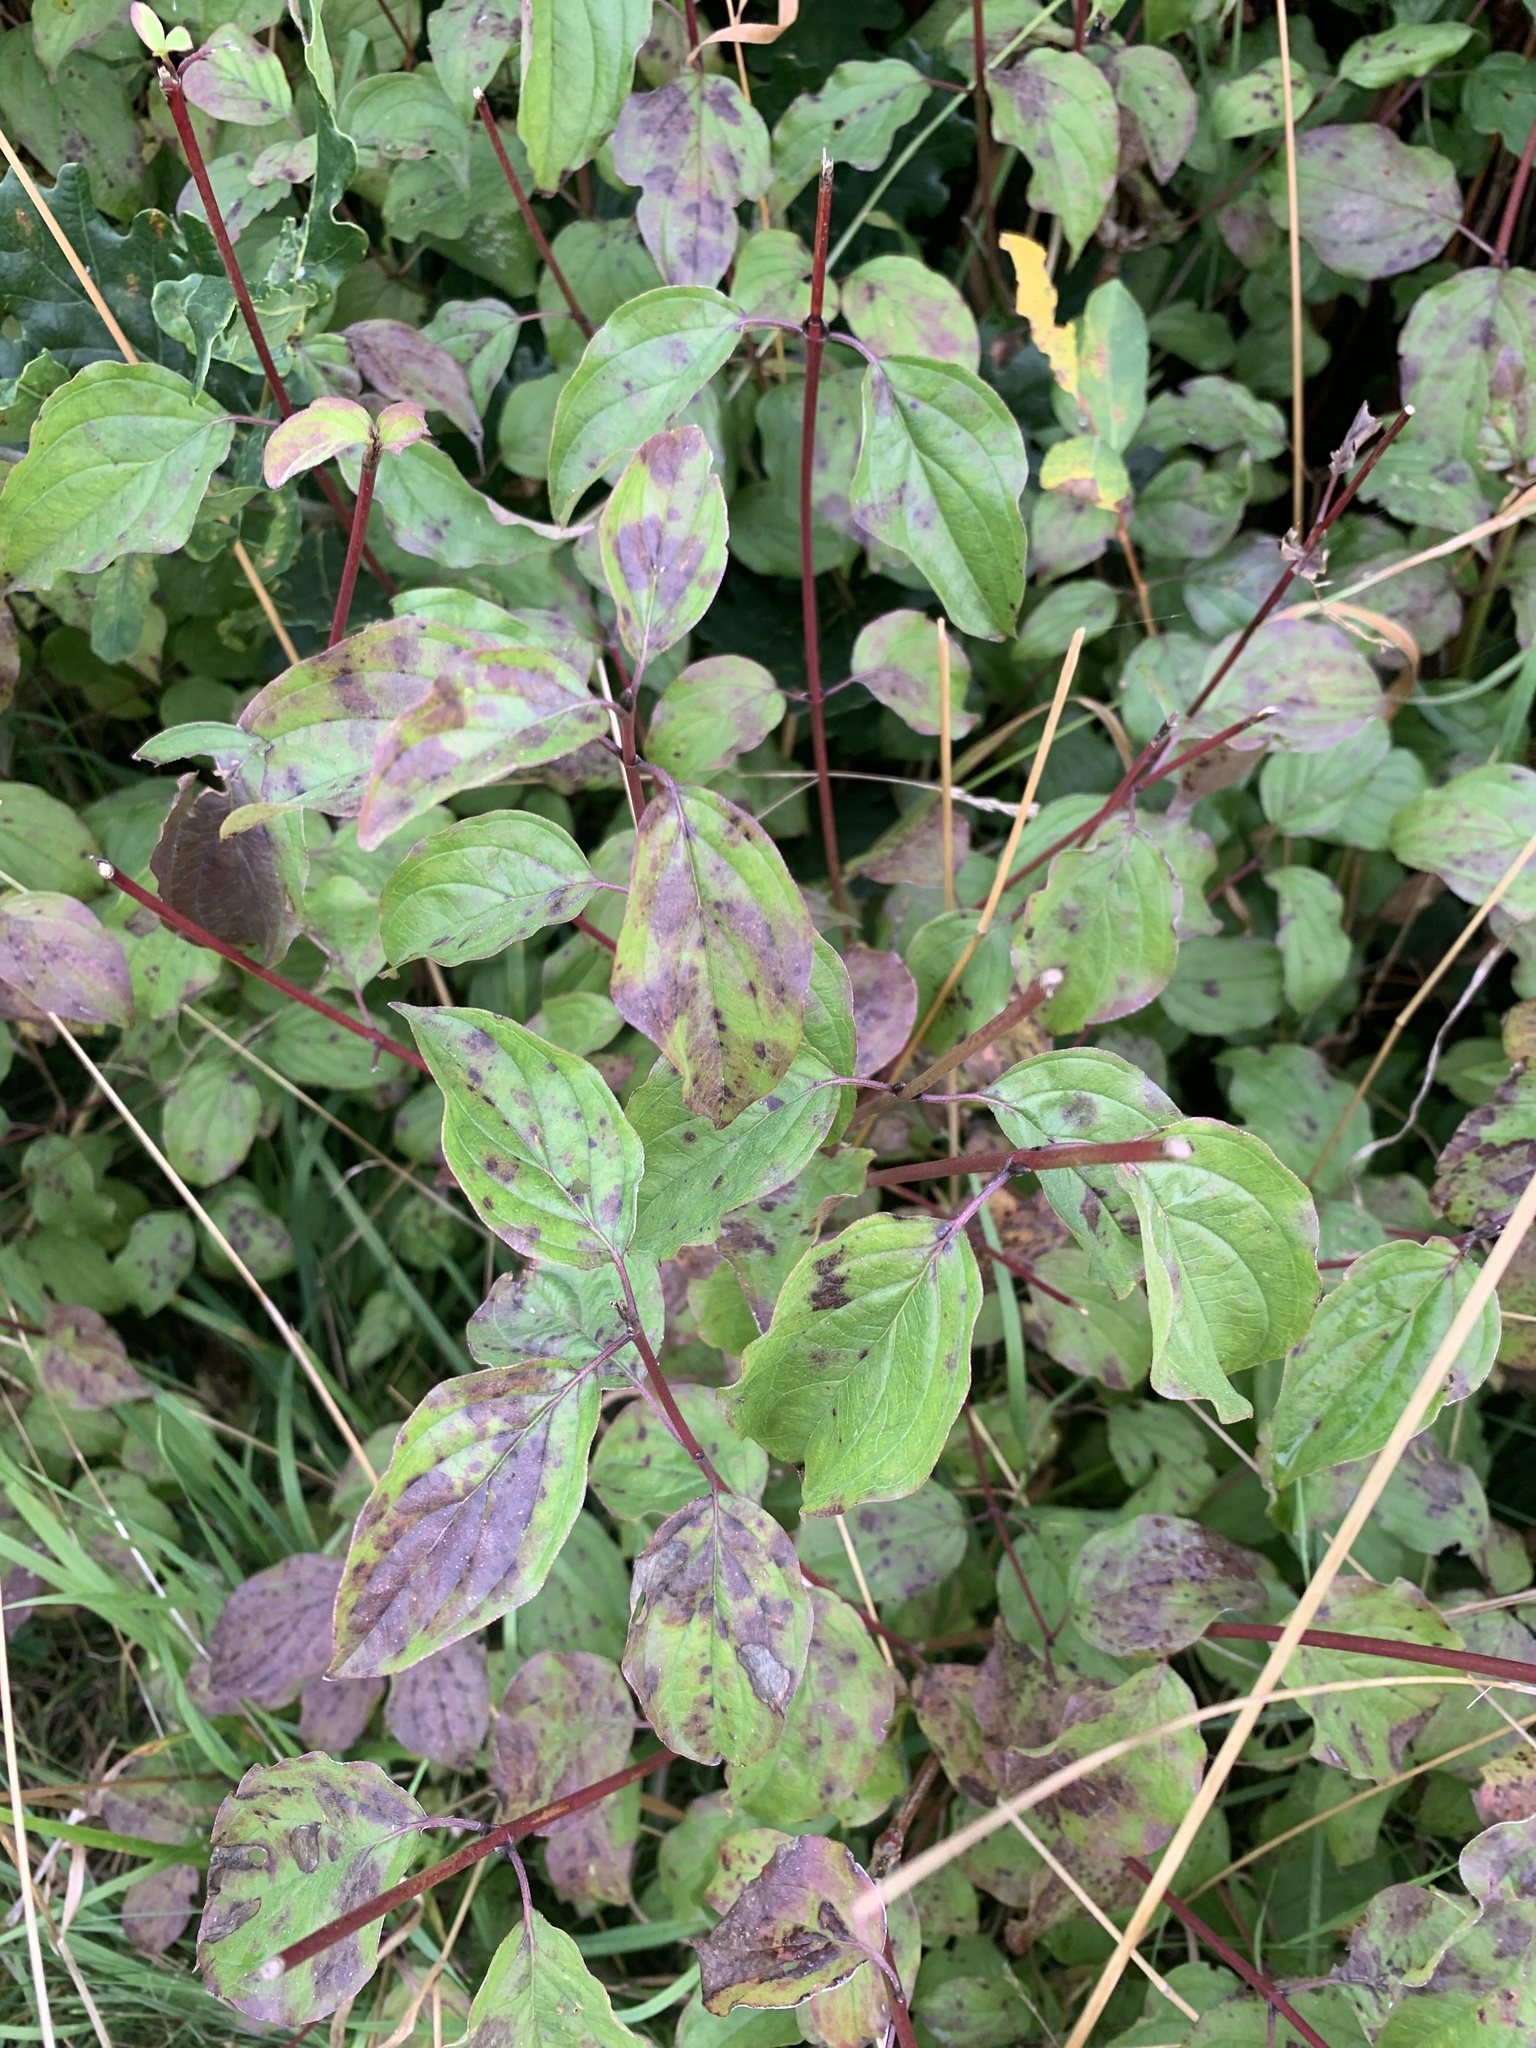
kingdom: Plantae
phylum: Tracheophyta
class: Magnoliopsida
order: Cornales
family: Cornaceae
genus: Cornus
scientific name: Cornus sanguinea
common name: Dogwood
